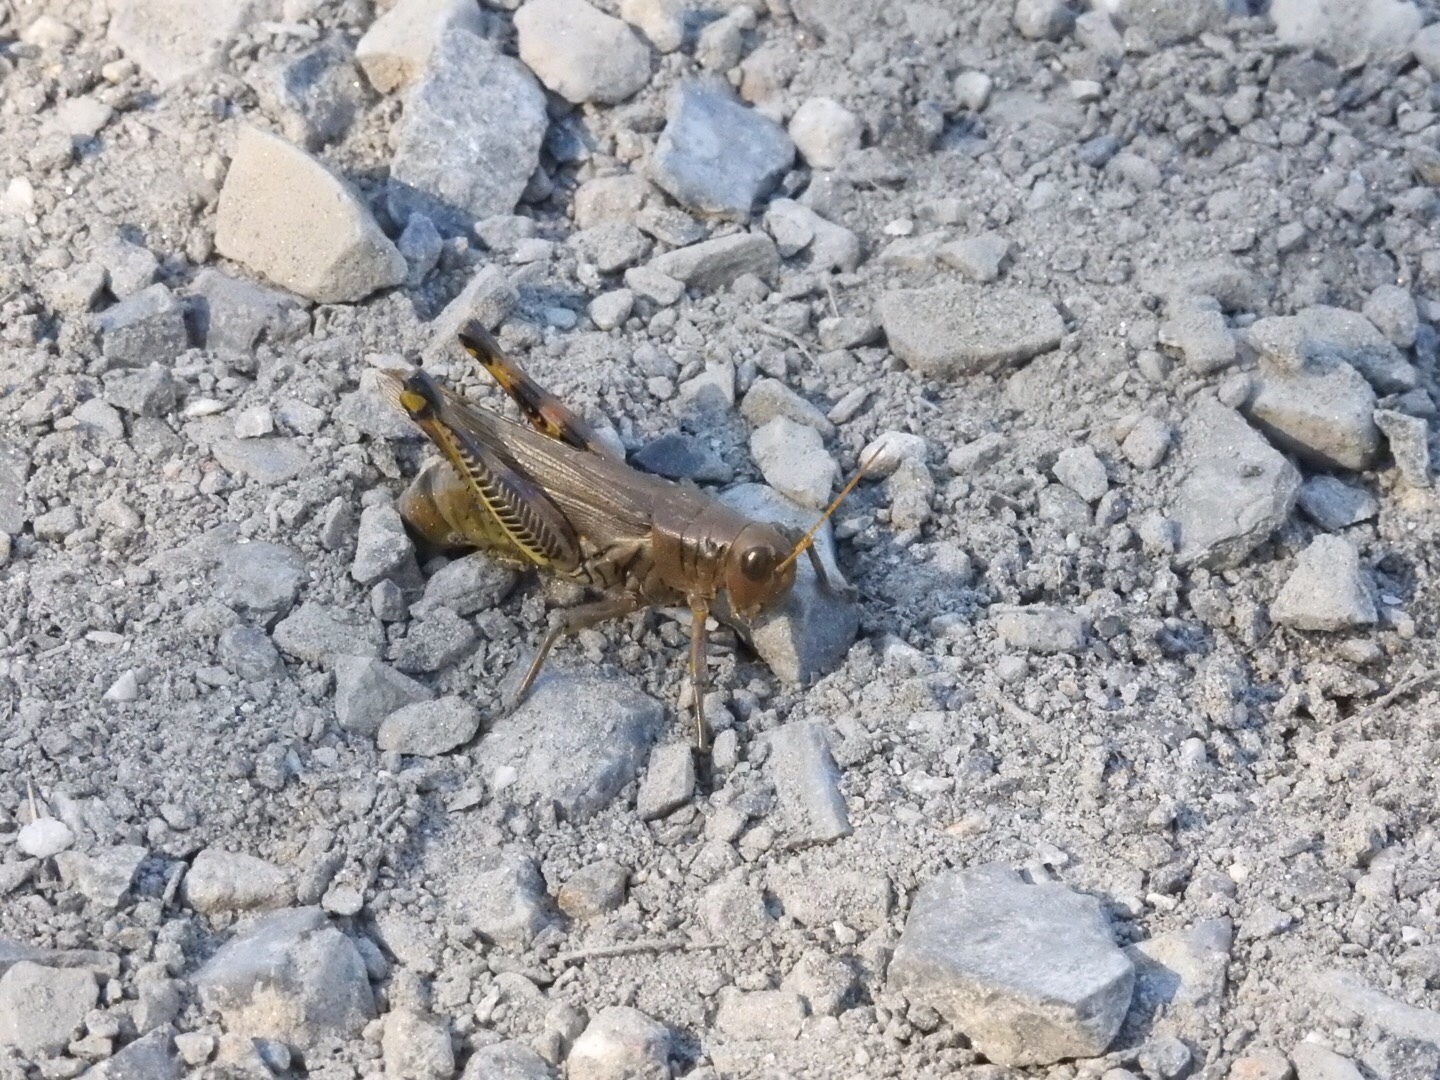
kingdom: Animalia
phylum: Arthropoda
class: Insecta
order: Orthoptera
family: Acrididae
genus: Melanoplus
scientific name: Melanoplus differentialis
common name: Differential grasshopper
